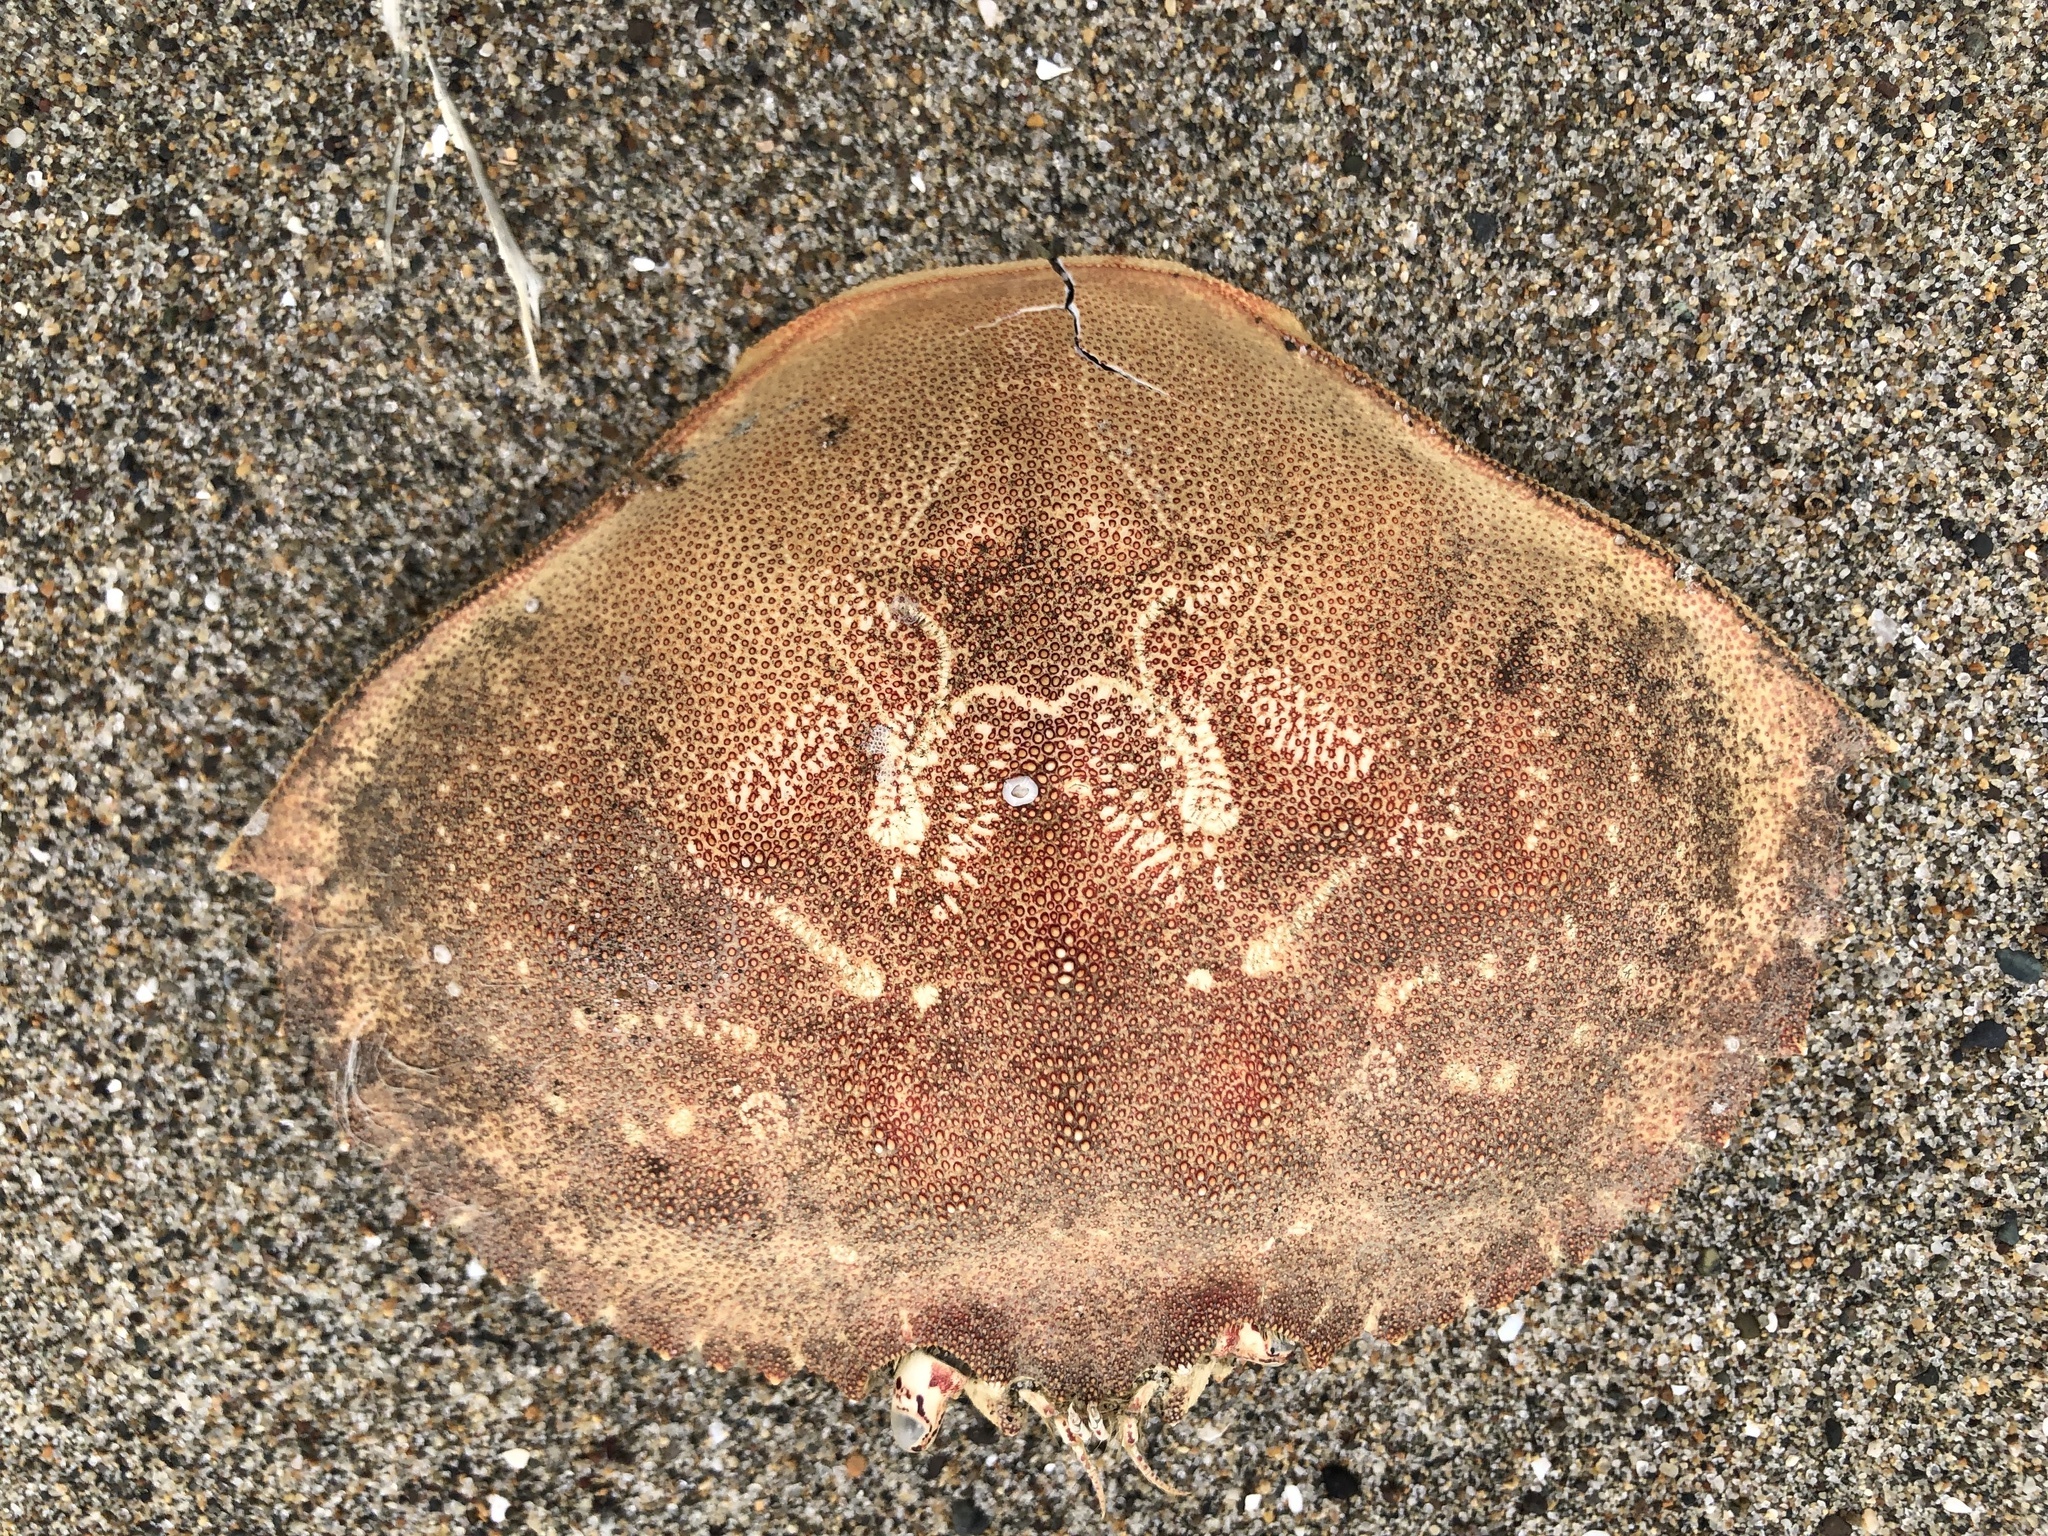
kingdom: Animalia
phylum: Arthropoda
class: Malacostraca
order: Decapoda
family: Cancridae
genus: Metacarcinus
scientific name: Metacarcinus magister
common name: Californian crab
